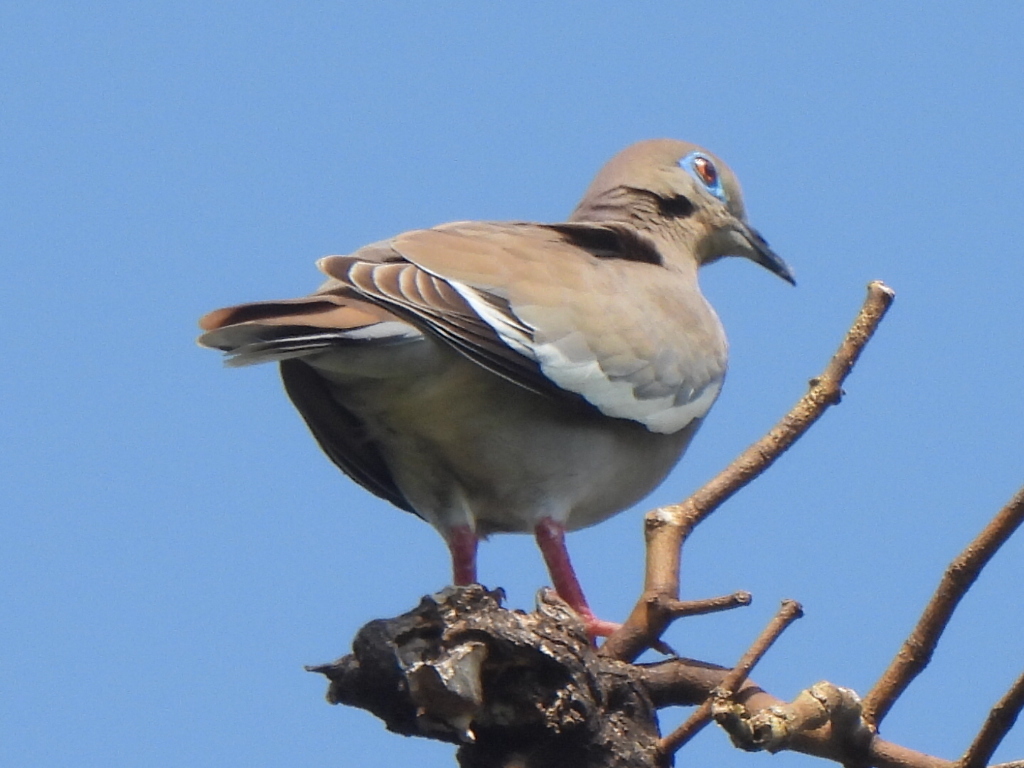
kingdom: Animalia
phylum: Chordata
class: Aves
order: Columbiformes
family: Columbidae
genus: Zenaida
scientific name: Zenaida asiatica
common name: White-winged dove
